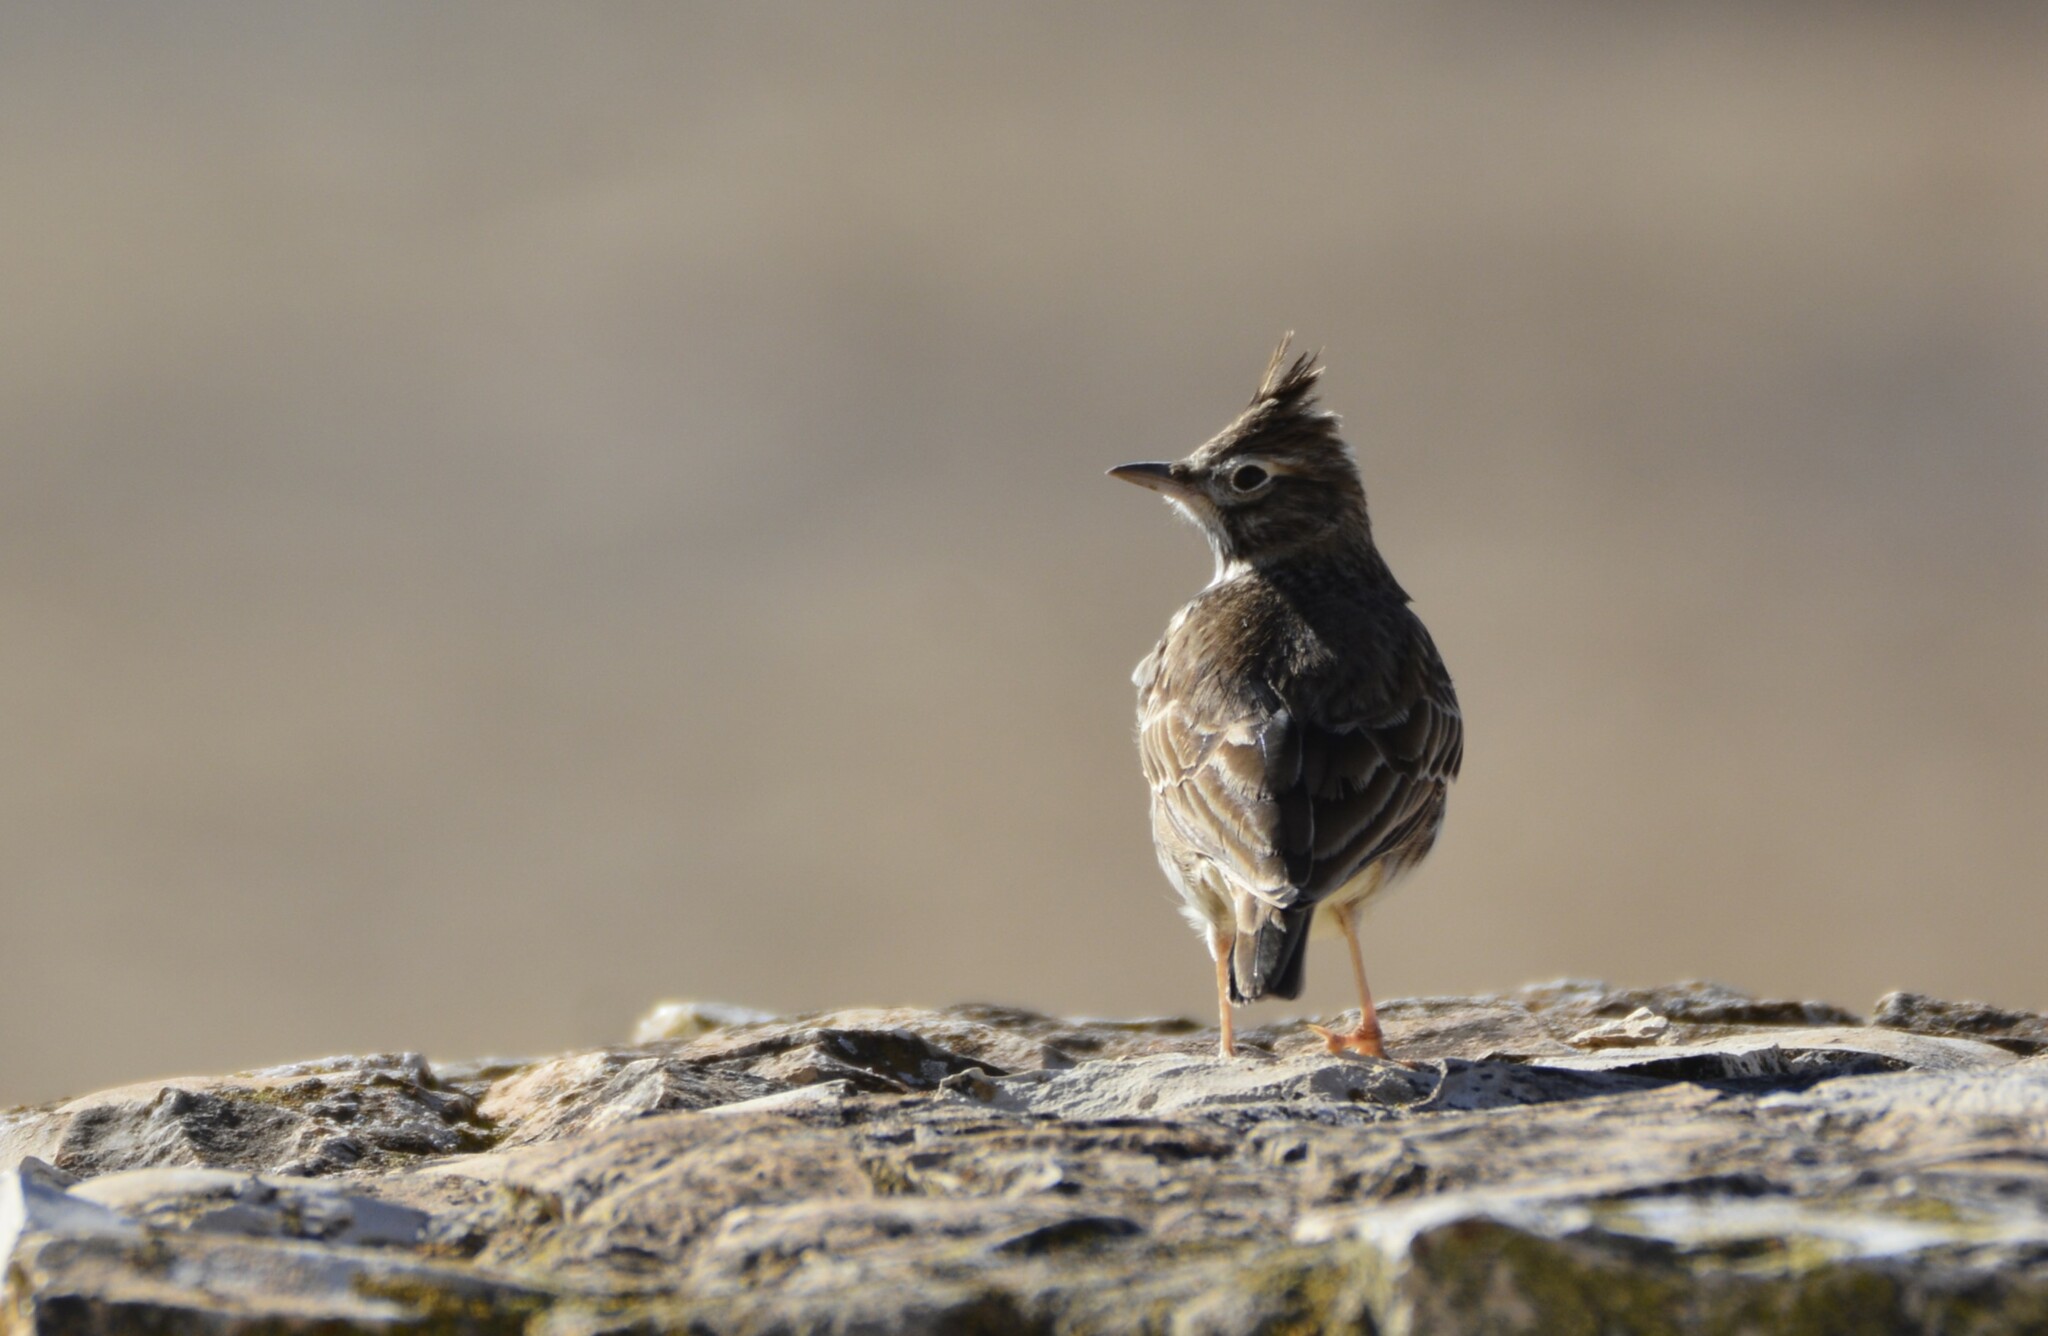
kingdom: Animalia
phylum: Chordata
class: Aves
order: Passeriformes
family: Alaudidae
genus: Galerida
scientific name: Galerida theklae
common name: Thekla lark
